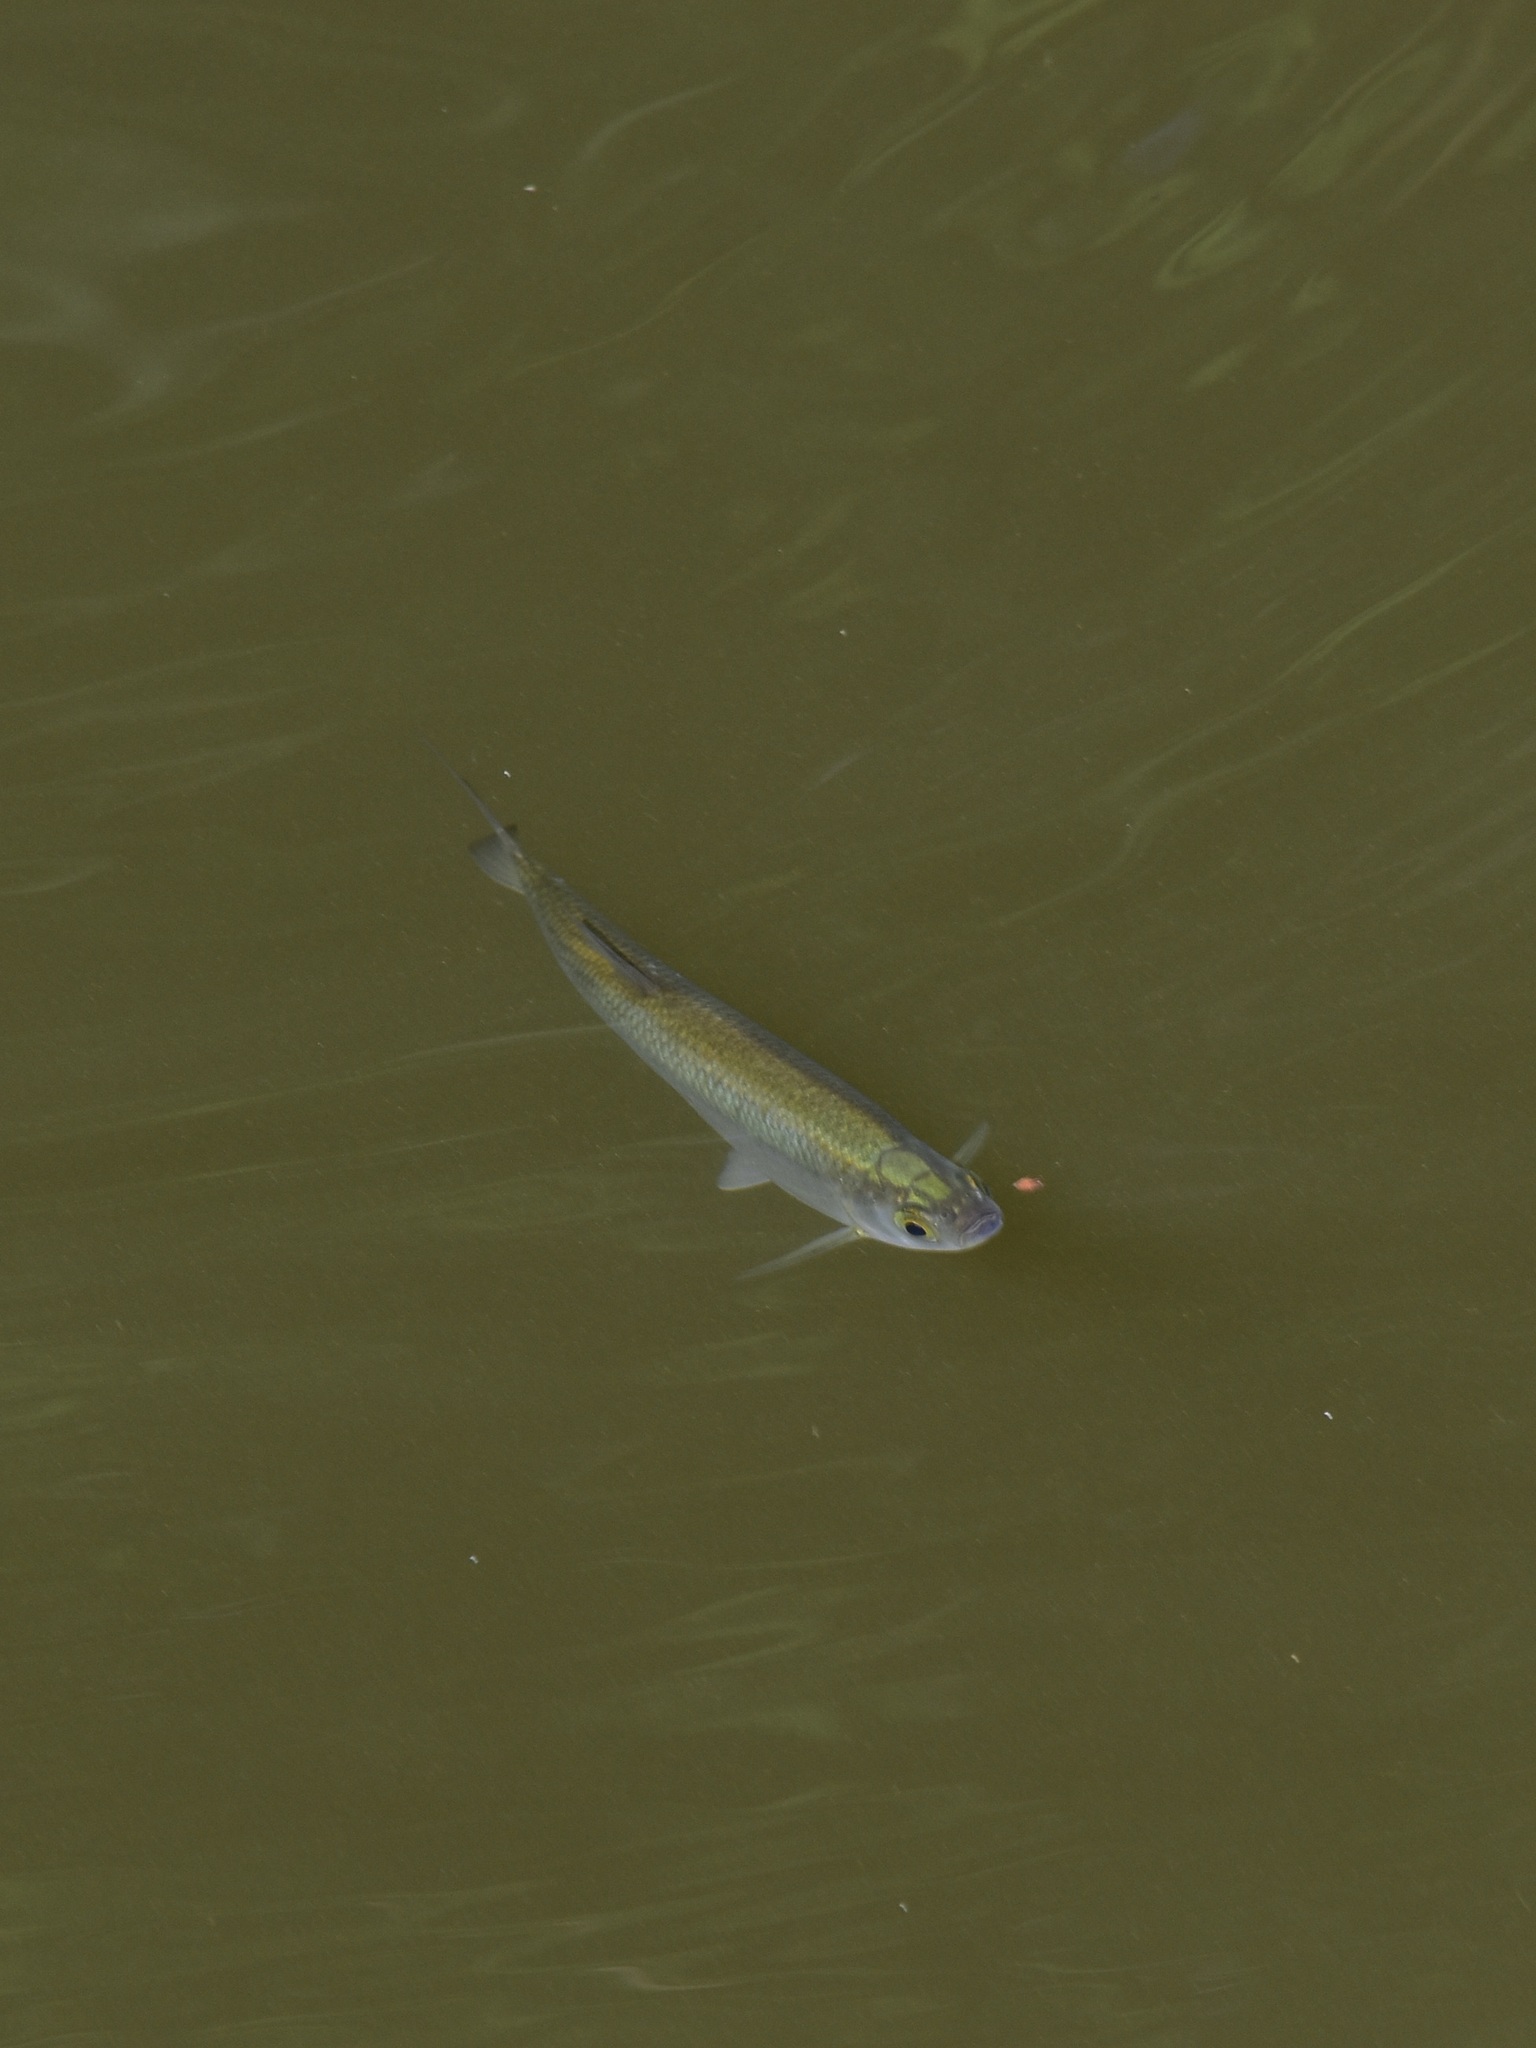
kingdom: Animalia
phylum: Chordata
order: Cypriniformes
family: Cyprinidae
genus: Alburnus
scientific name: Alburnus alburnus
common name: Bleak
